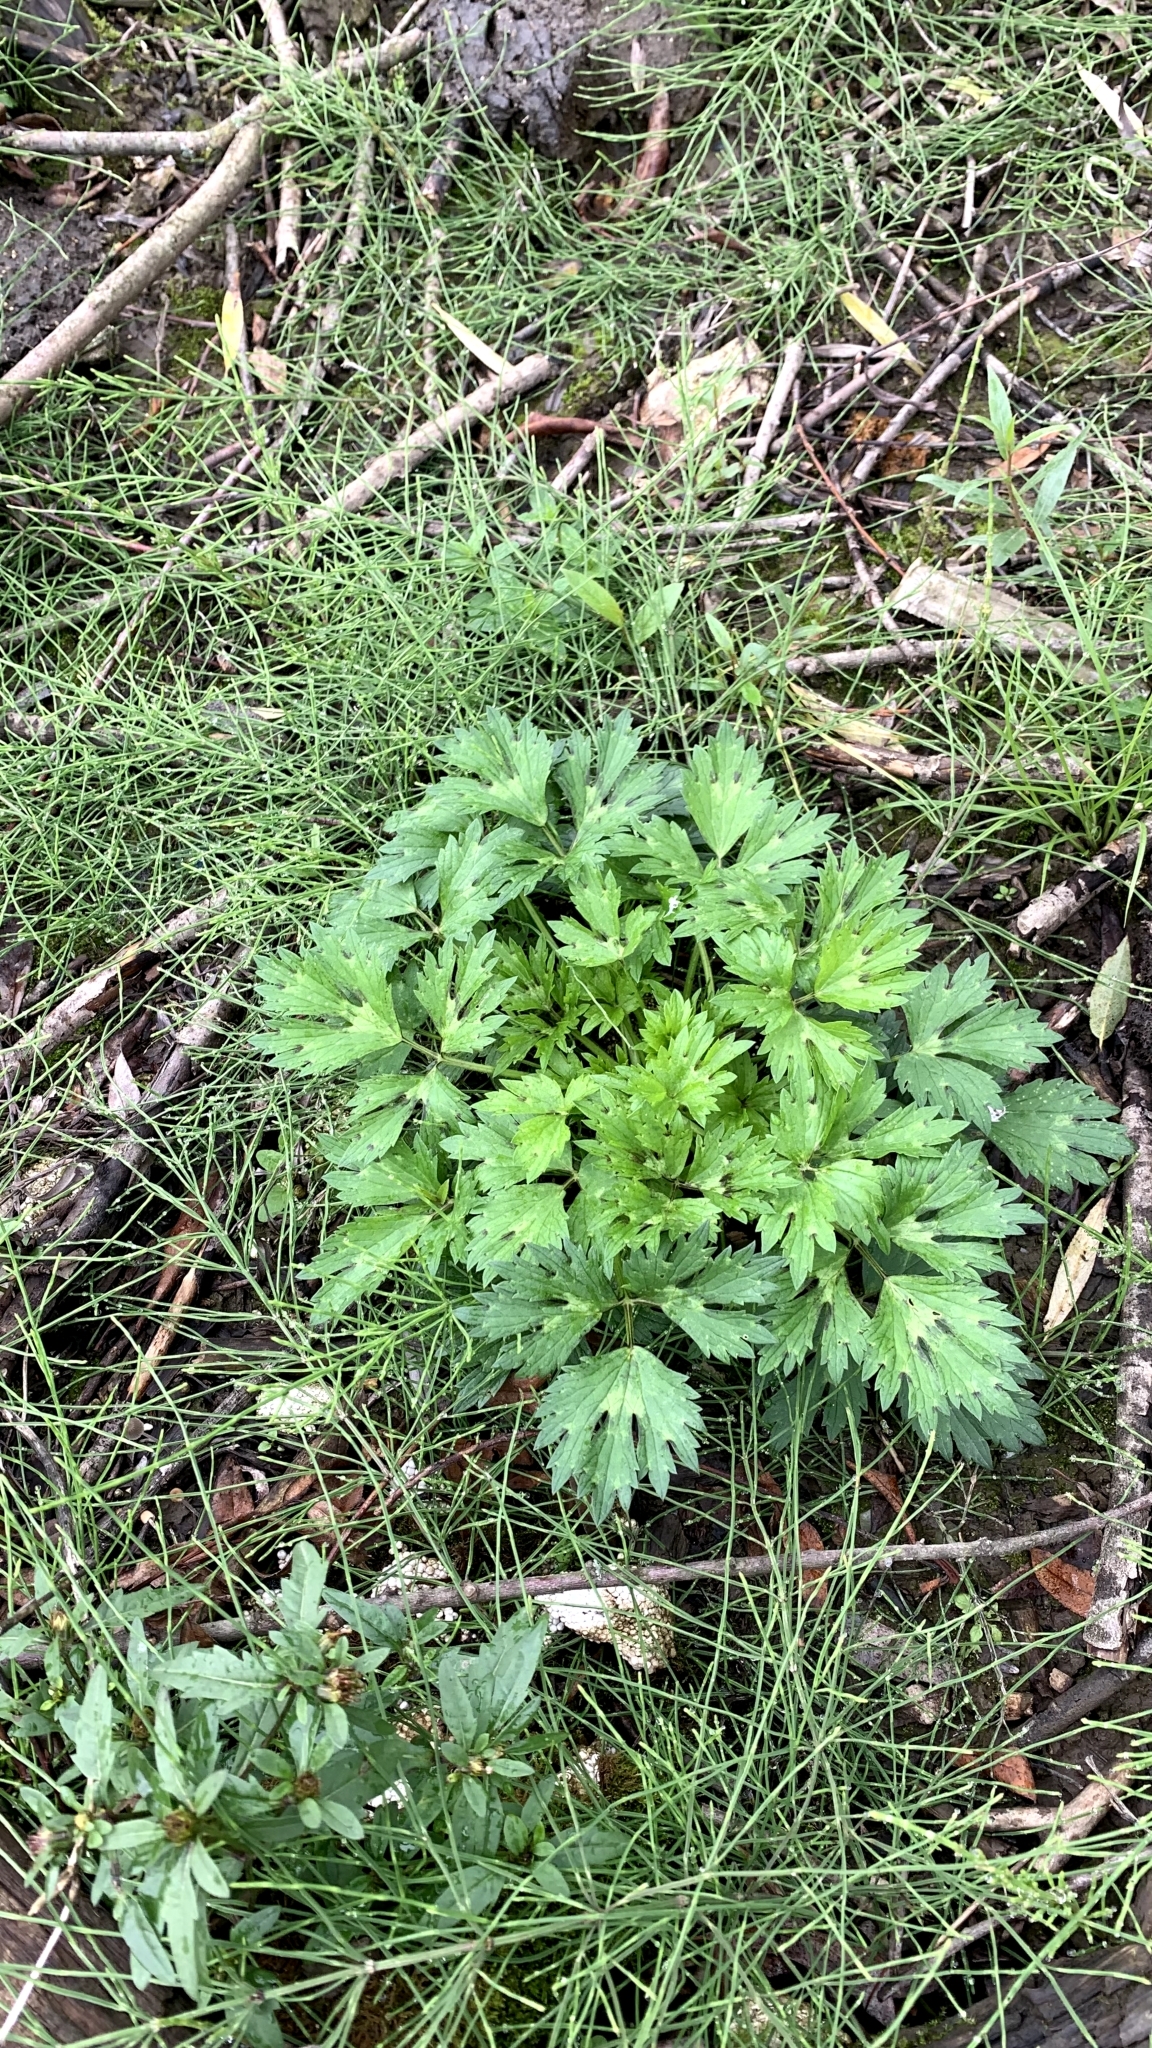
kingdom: Plantae
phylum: Tracheophyta
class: Magnoliopsida
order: Ranunculales
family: Ranunculaceae
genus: Ranunculus
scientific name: Ranunculus repens
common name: Creeping buttercup
